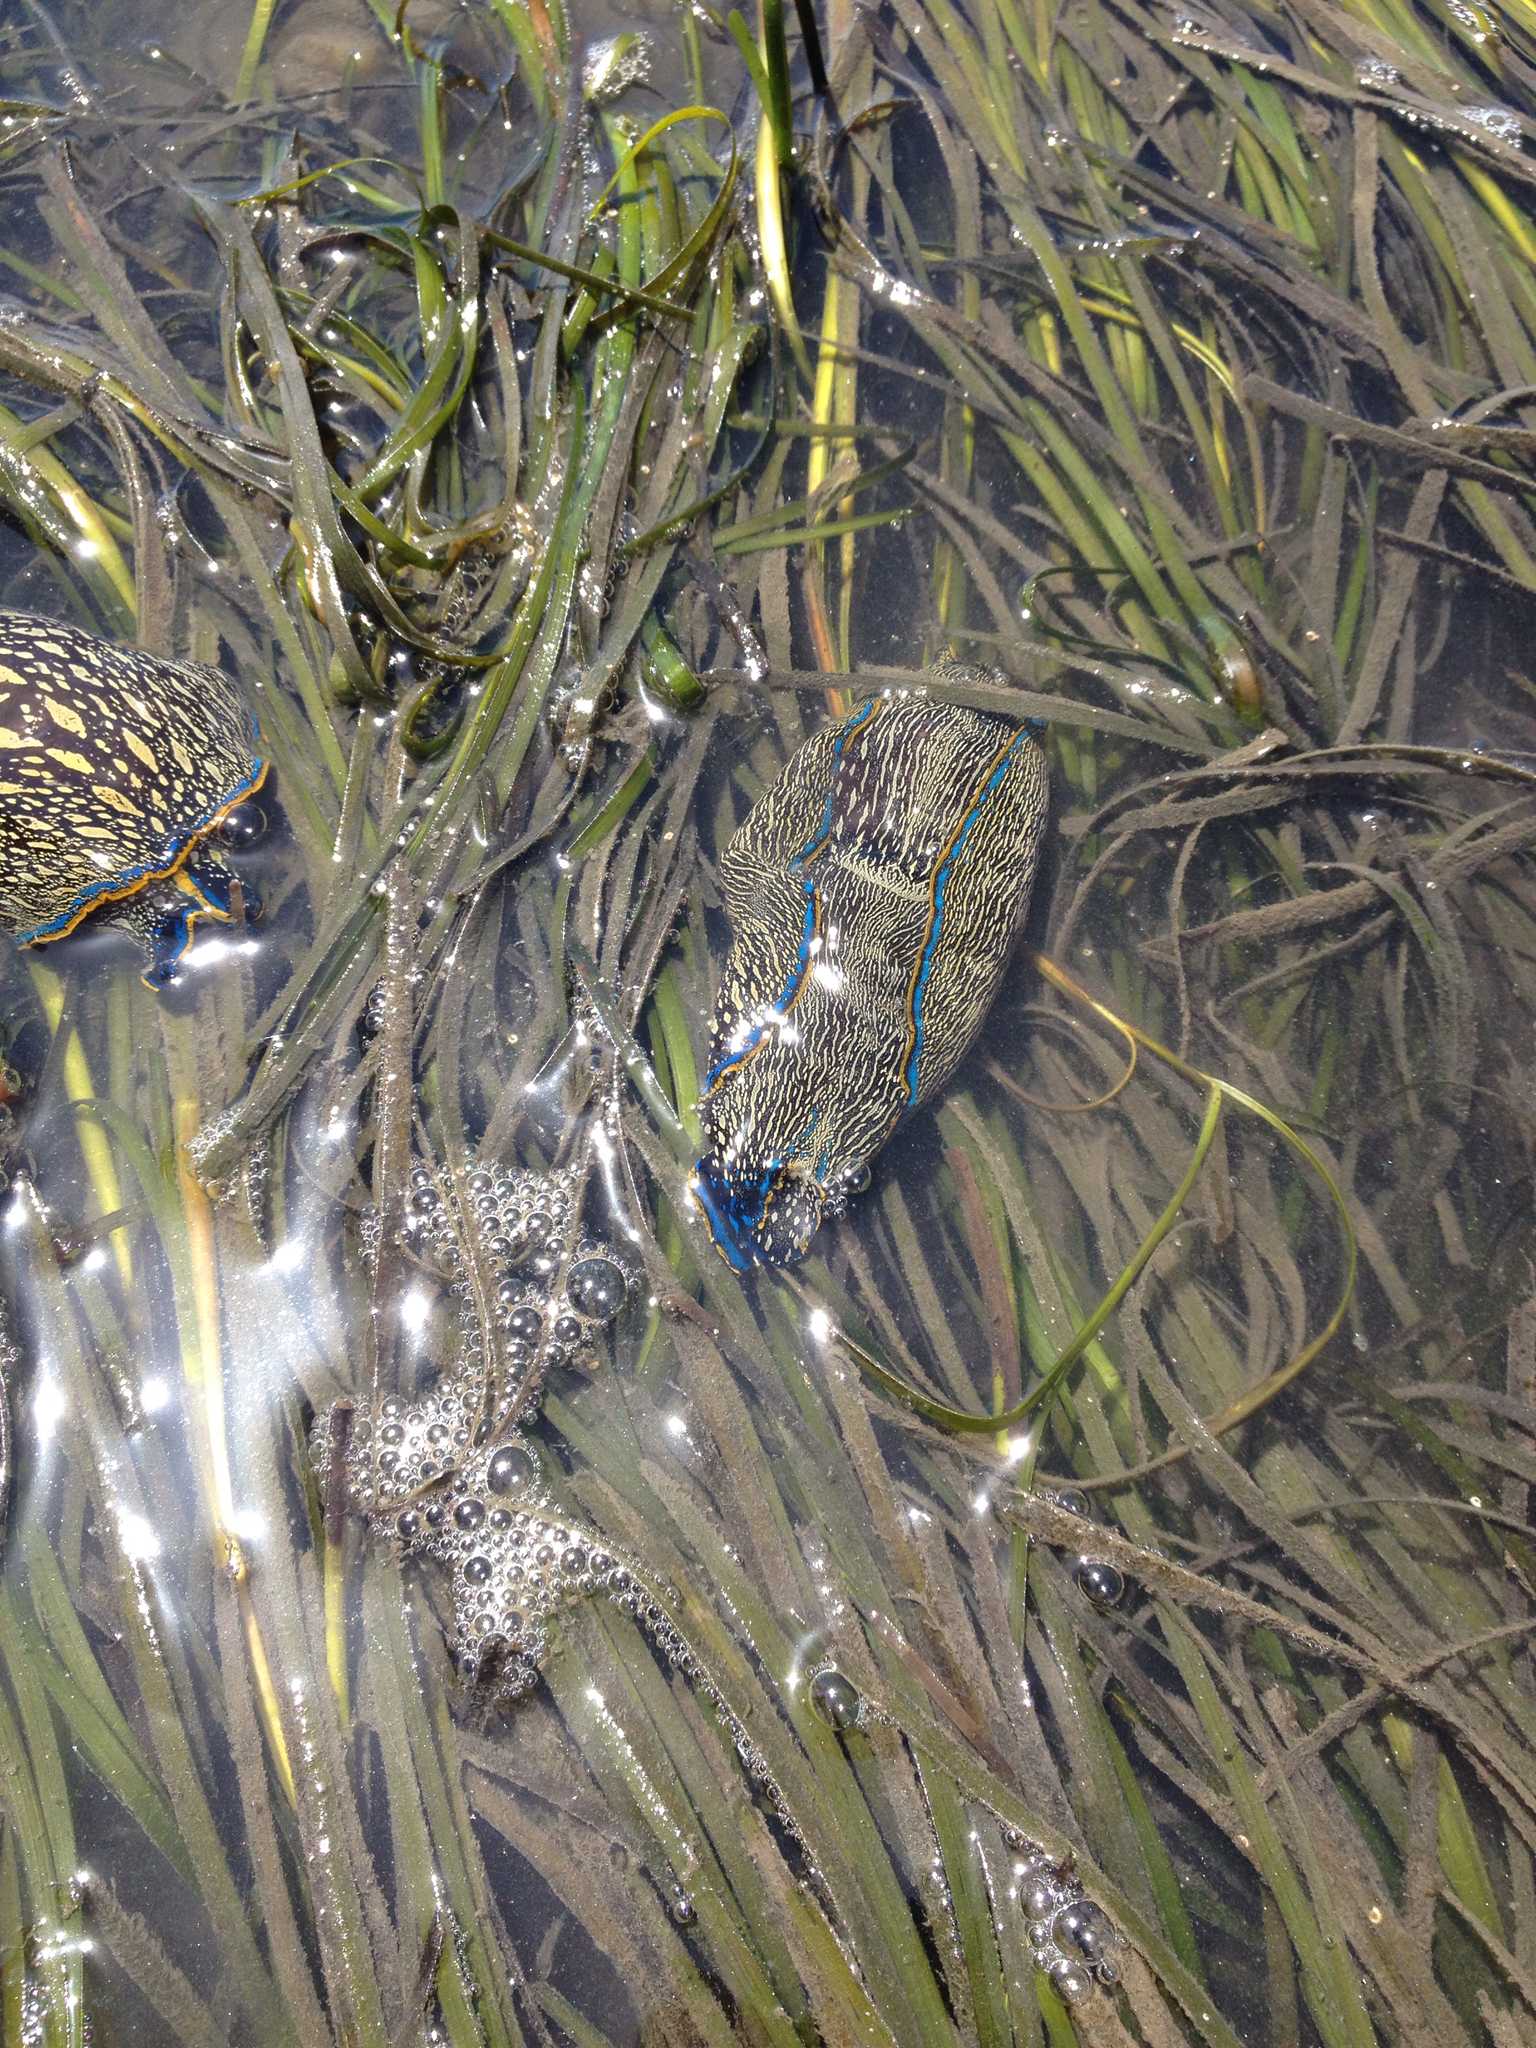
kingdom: Animalia
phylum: Mollusca
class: Gastropoda
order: Cephalaspidea
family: Aglajidae
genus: Navanax
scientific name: Navanax inermis
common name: California aglaja
